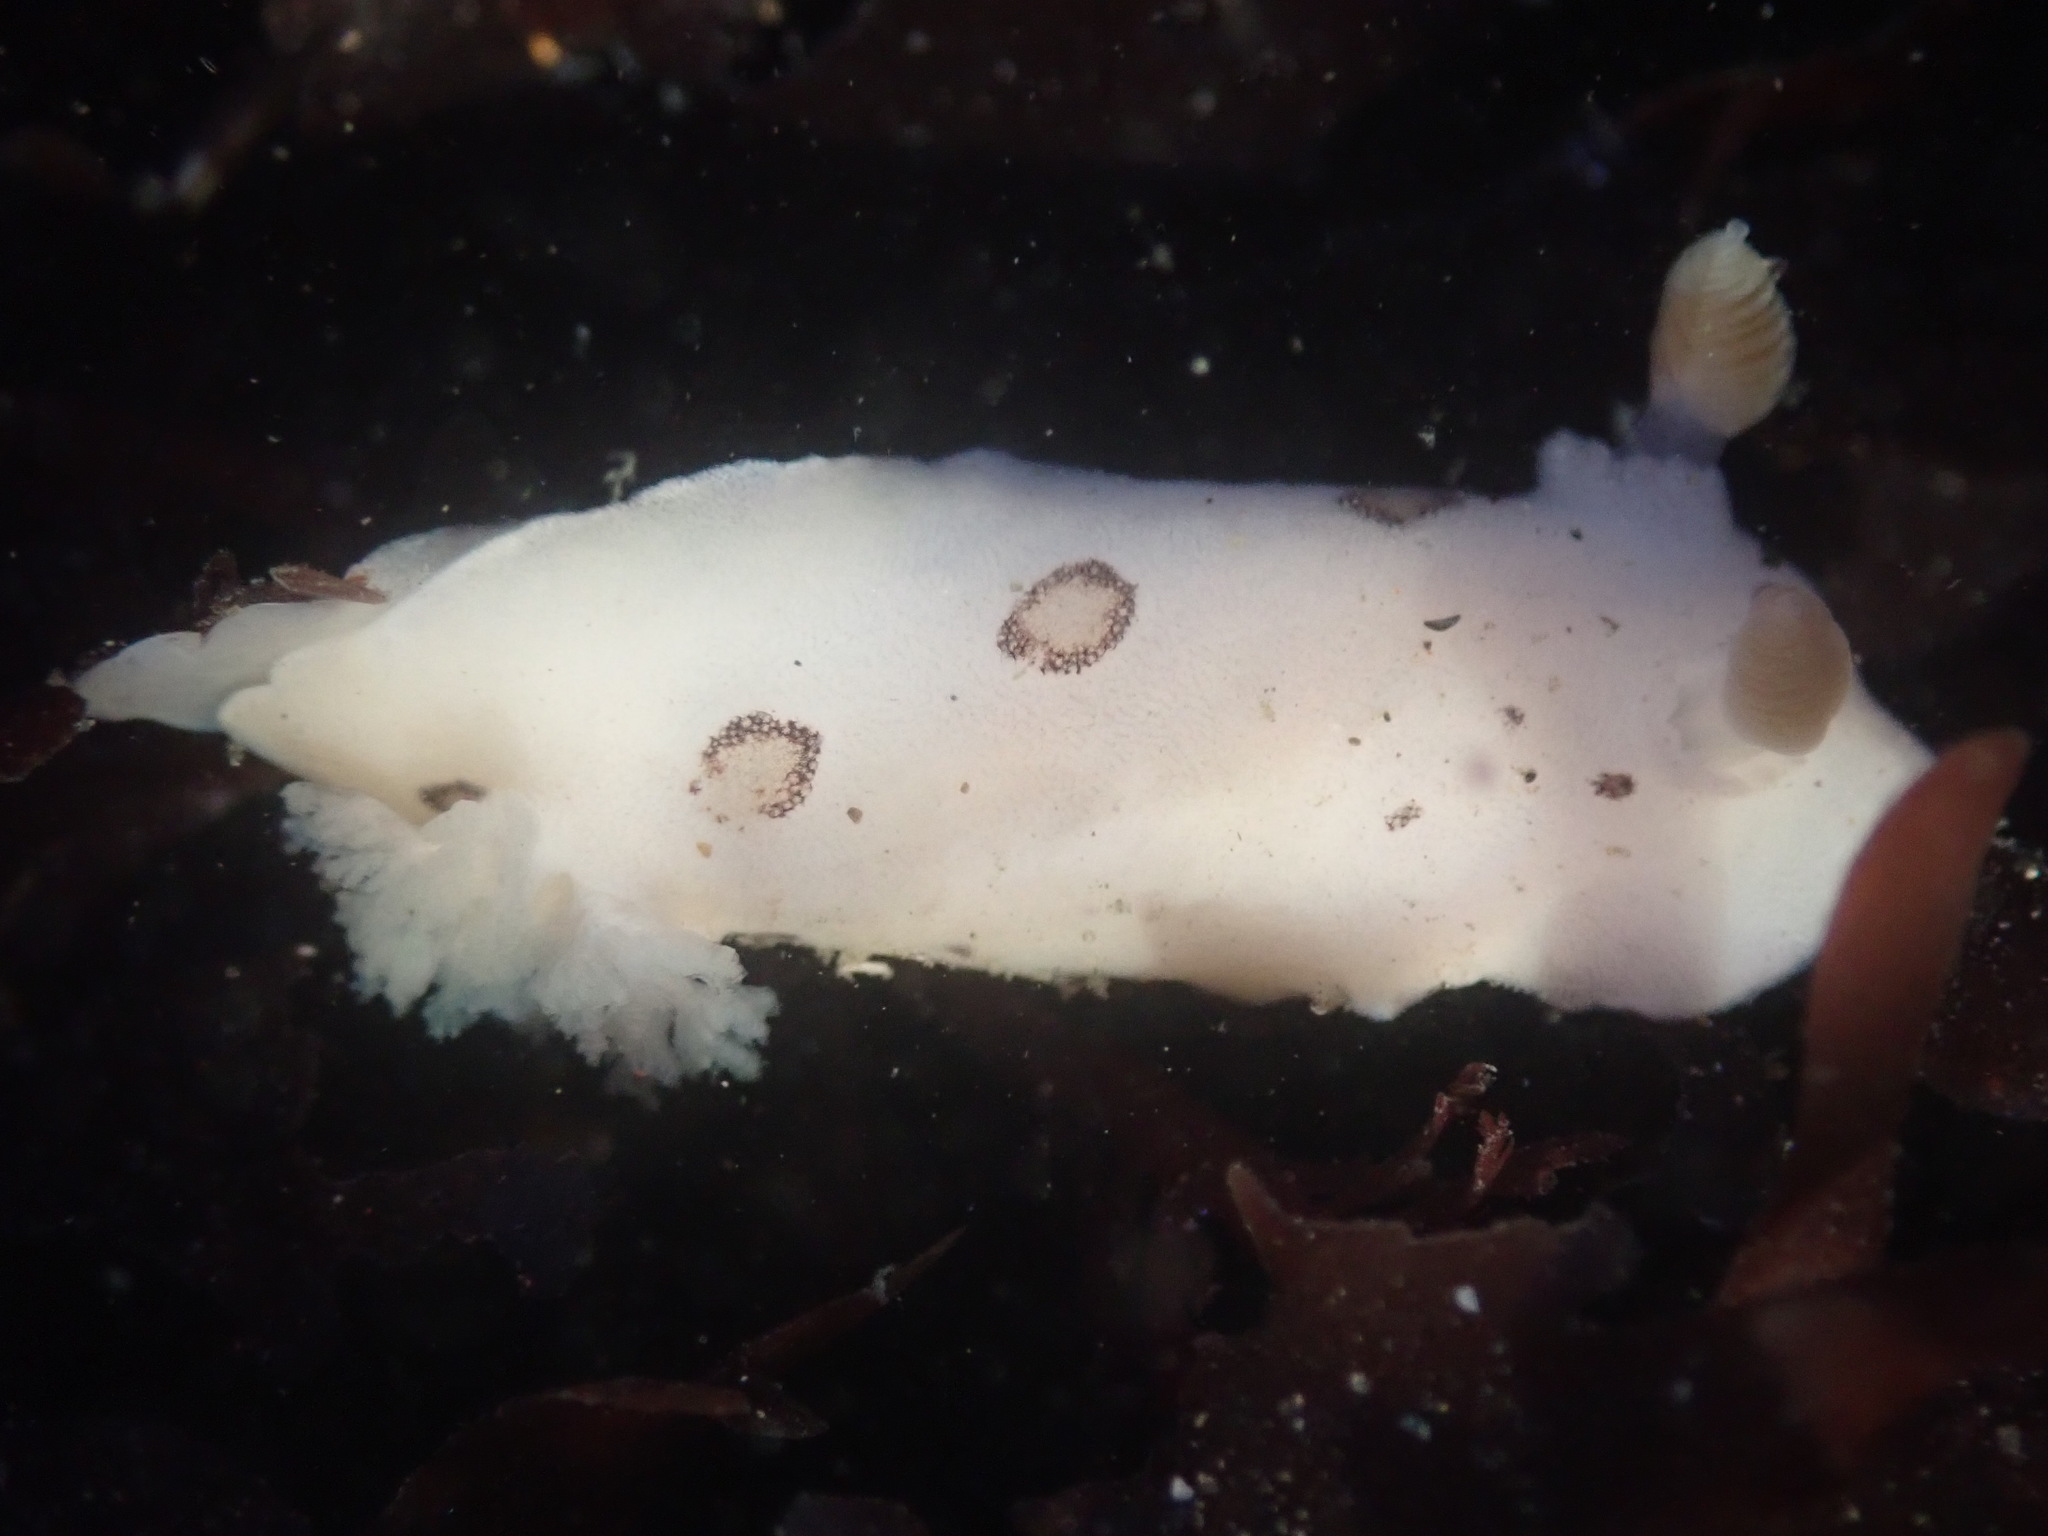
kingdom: Animalia
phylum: Mollusca
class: Gastropoda
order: Nudibranchia
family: Discodorididae
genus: Diaulula
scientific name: Diaulula sandiegensis
